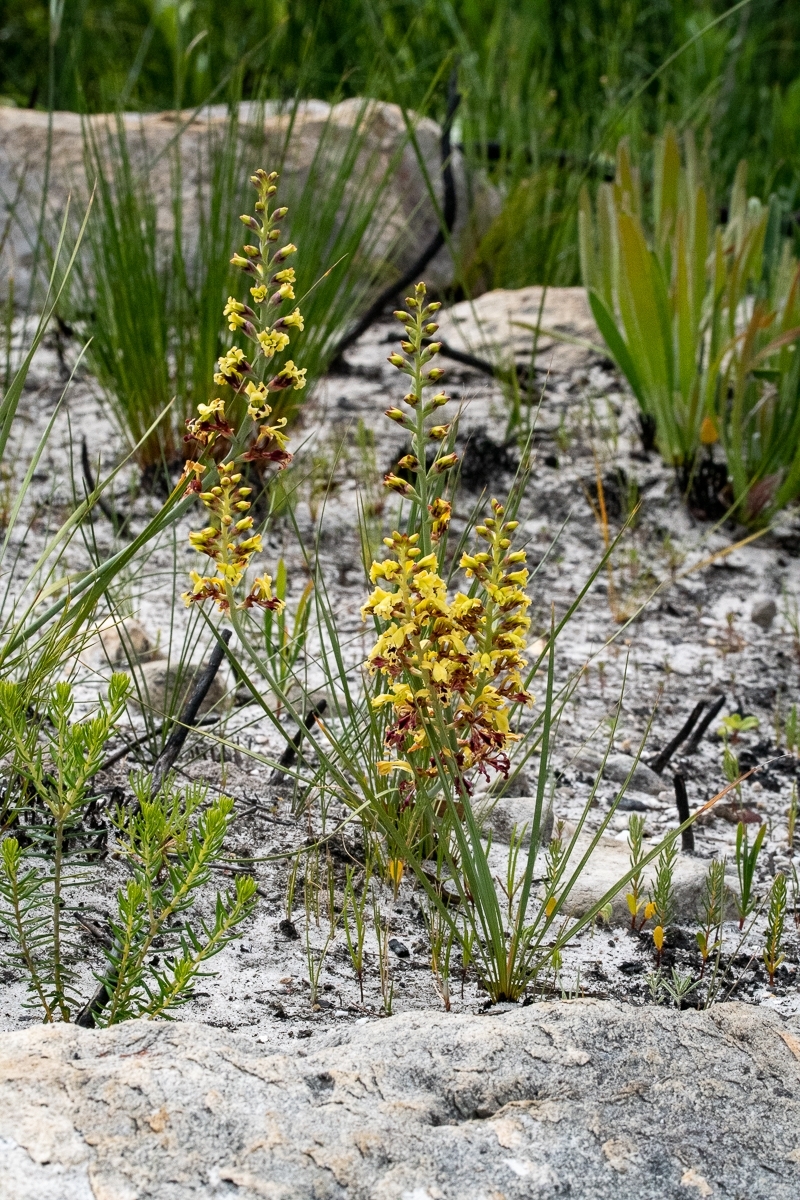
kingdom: Plantae
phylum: Tracheophyta
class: Liliopsida
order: Asparagales
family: Iridaceae
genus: Tritoniopsis
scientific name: Tritoniopsis parviflora
